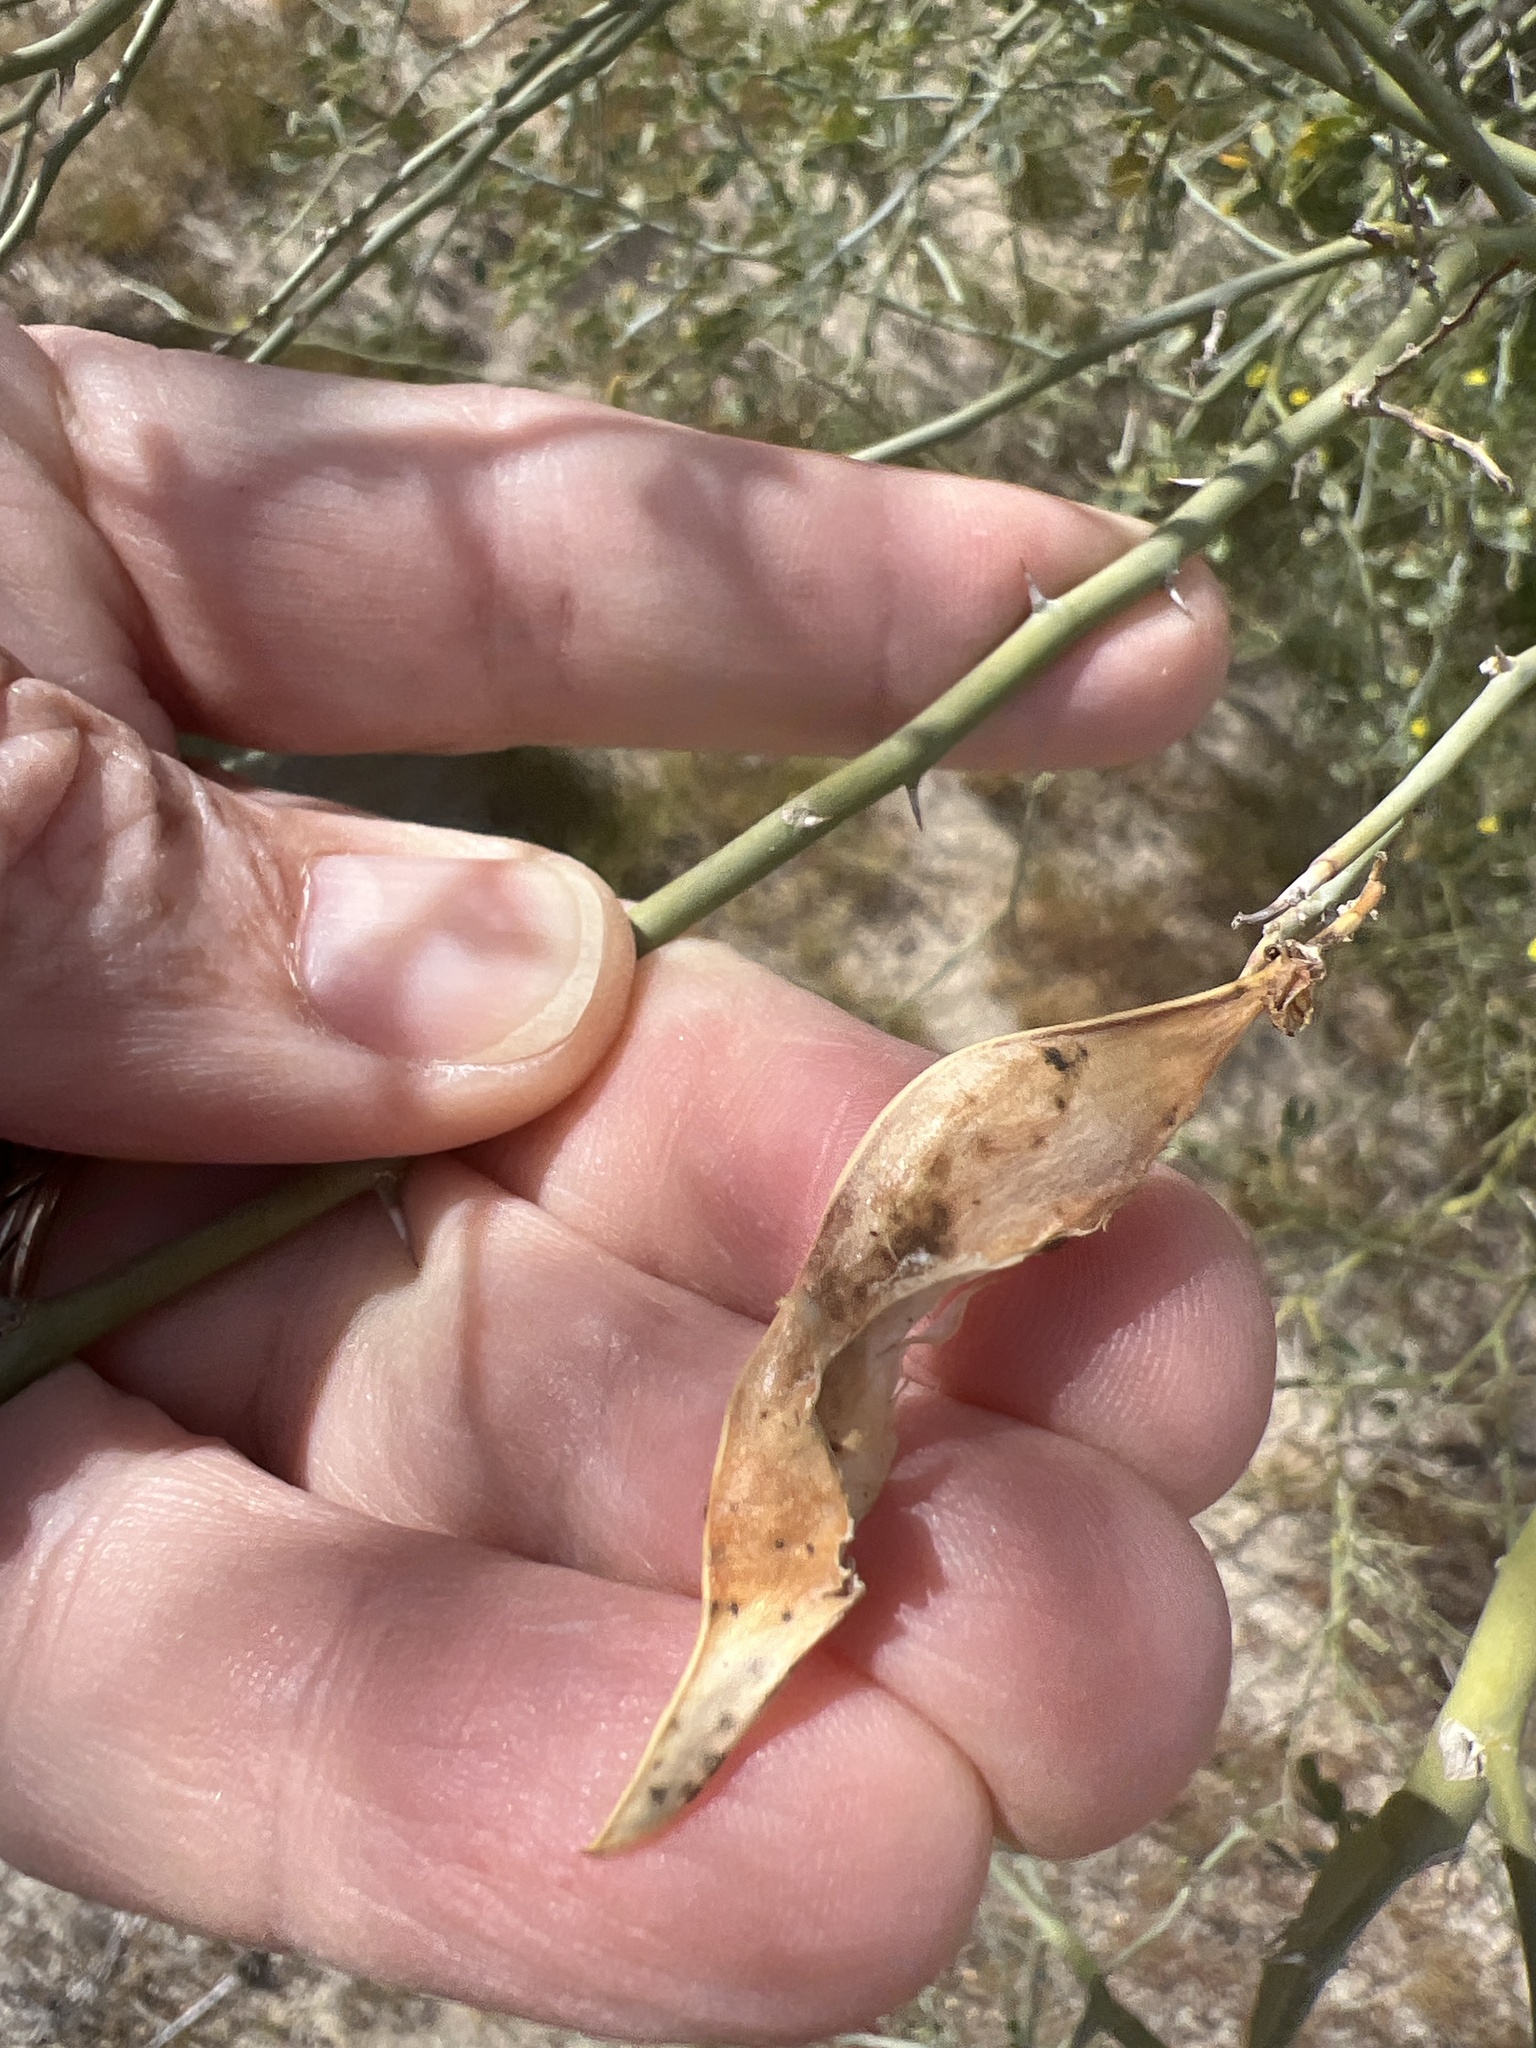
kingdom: Plantae
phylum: Tracheophyta
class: Magnoliopsida
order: Fabales
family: Fabaceae
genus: Parkinsonia
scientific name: Parkinsonia florida
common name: Blue paloverde
